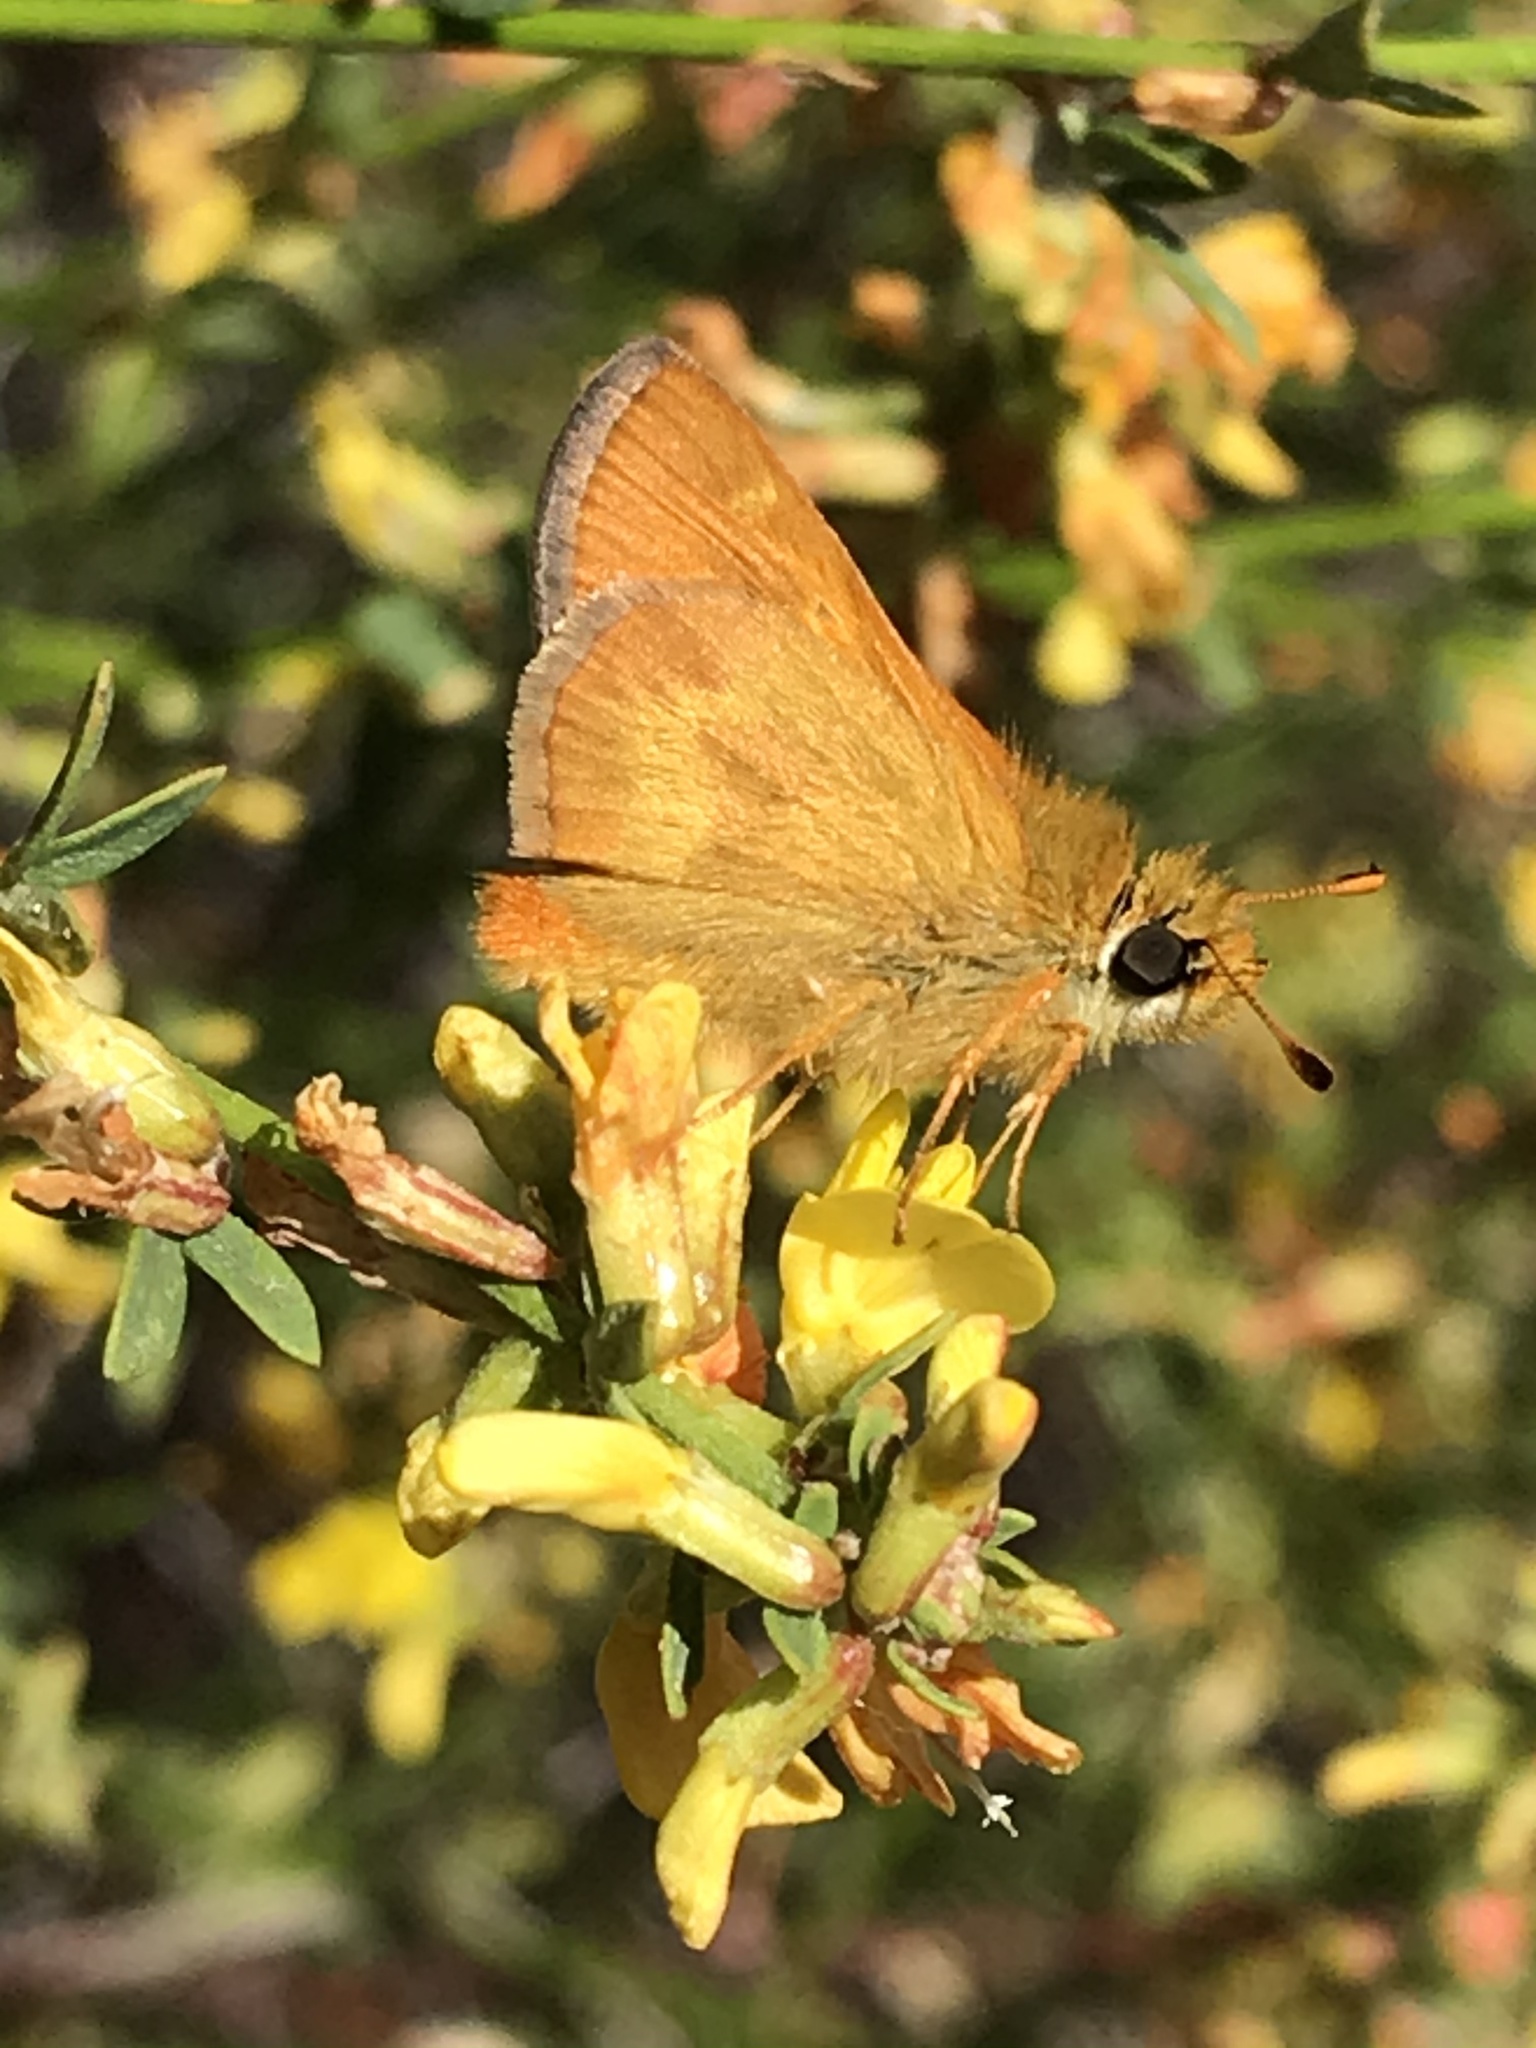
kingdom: Animalia
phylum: Arthropoda
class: Insecta
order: Lepidoptera
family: Hesperiidae
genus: Ochlodes
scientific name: Ochlodes agricola
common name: Rural skipper
